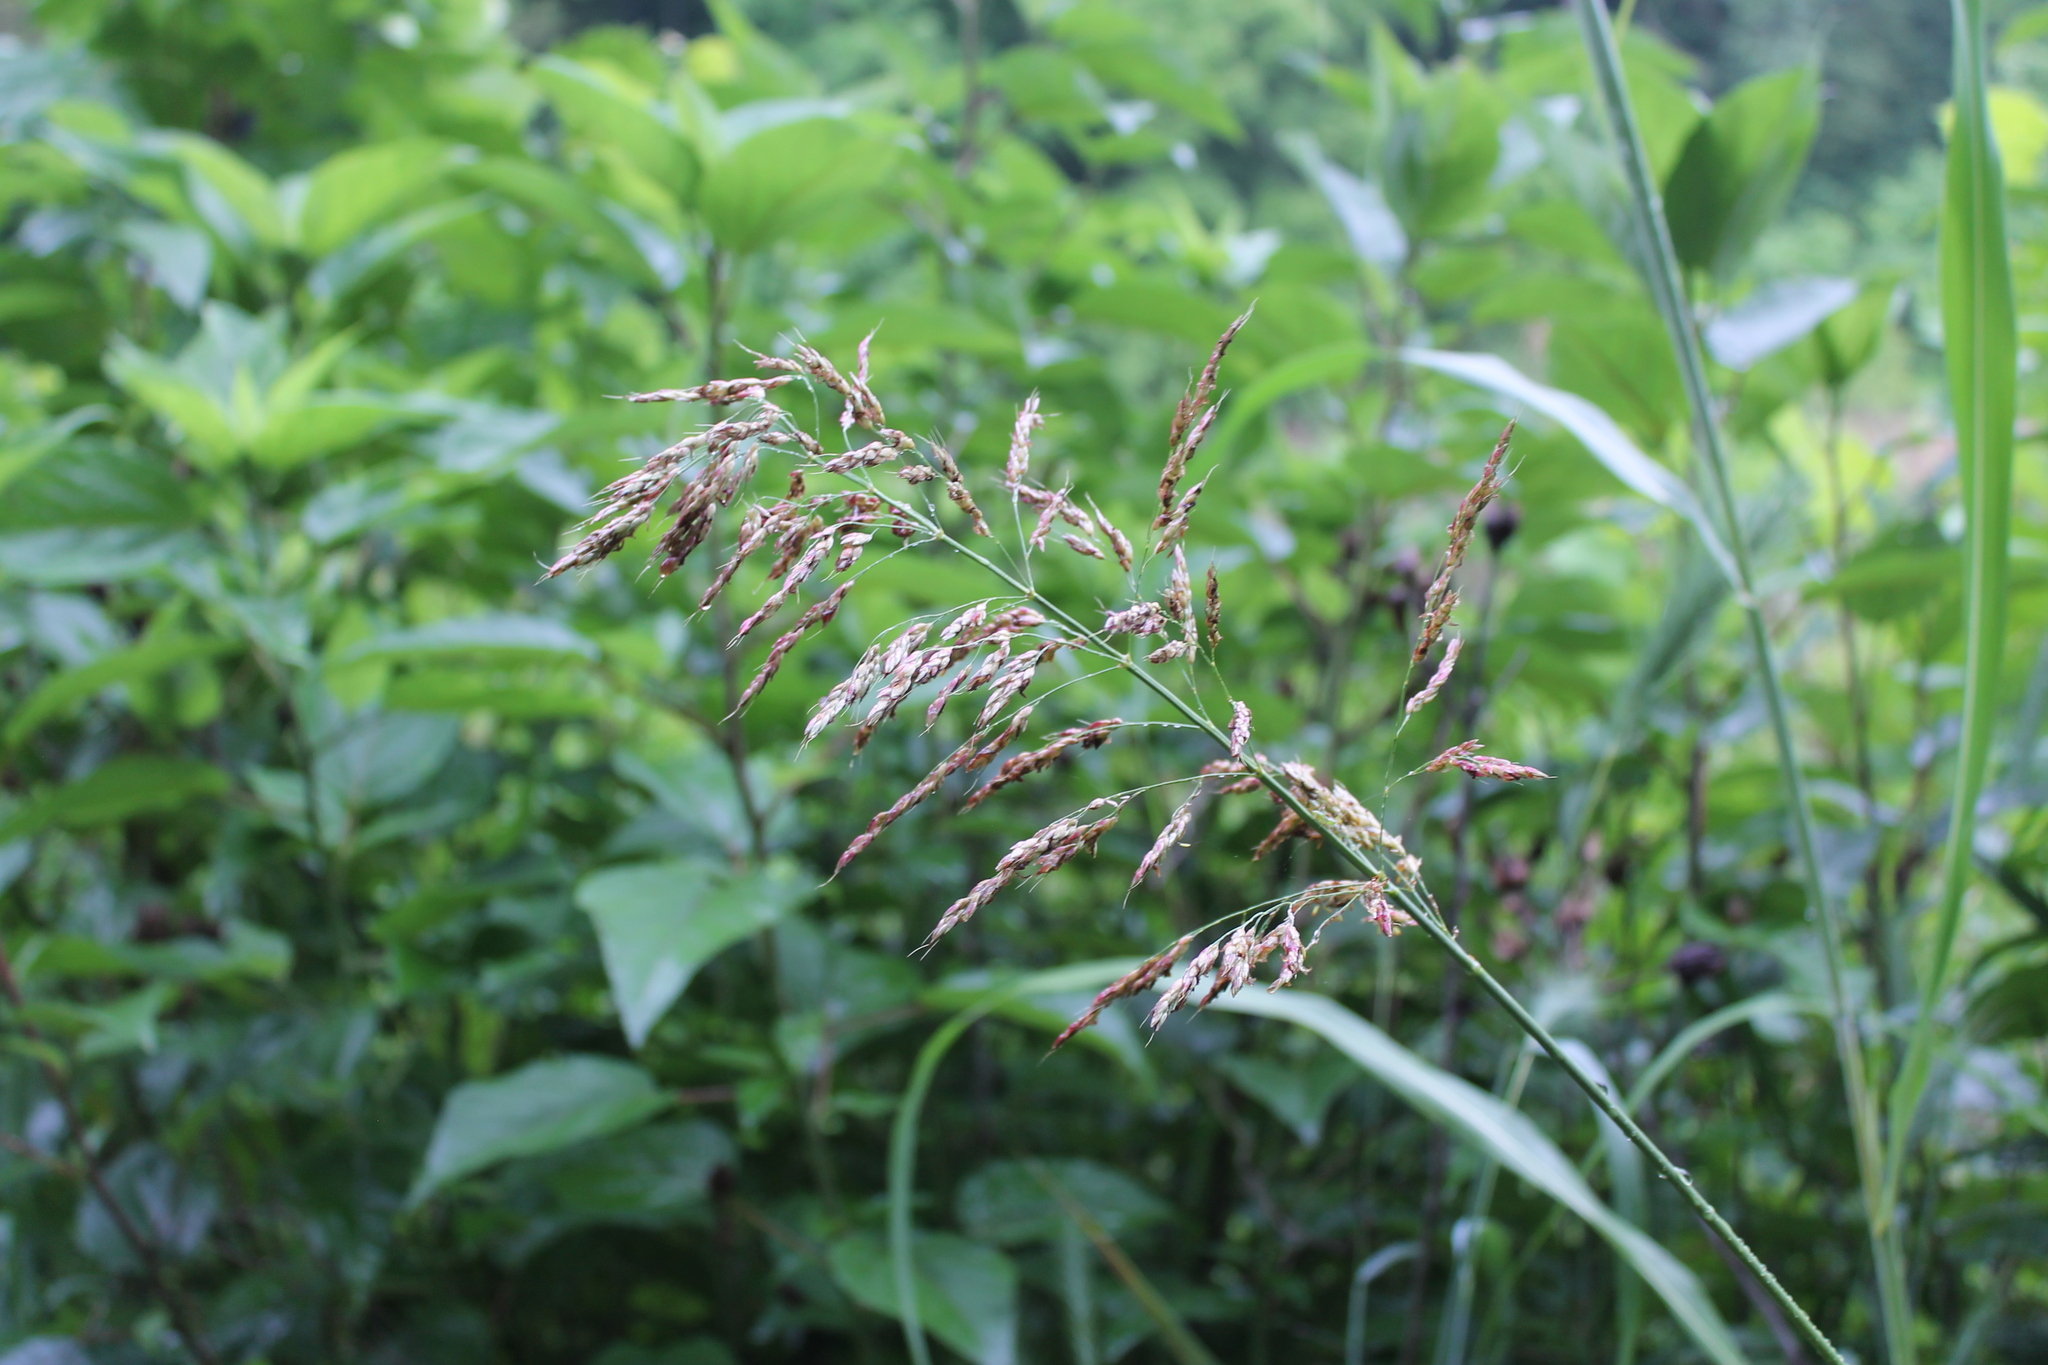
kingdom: Plantae
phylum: Tracheophyta
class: Liliopsida
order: Poales
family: Poaceae
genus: Sorghum
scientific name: Sorghum halepense
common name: Johnson-grass
